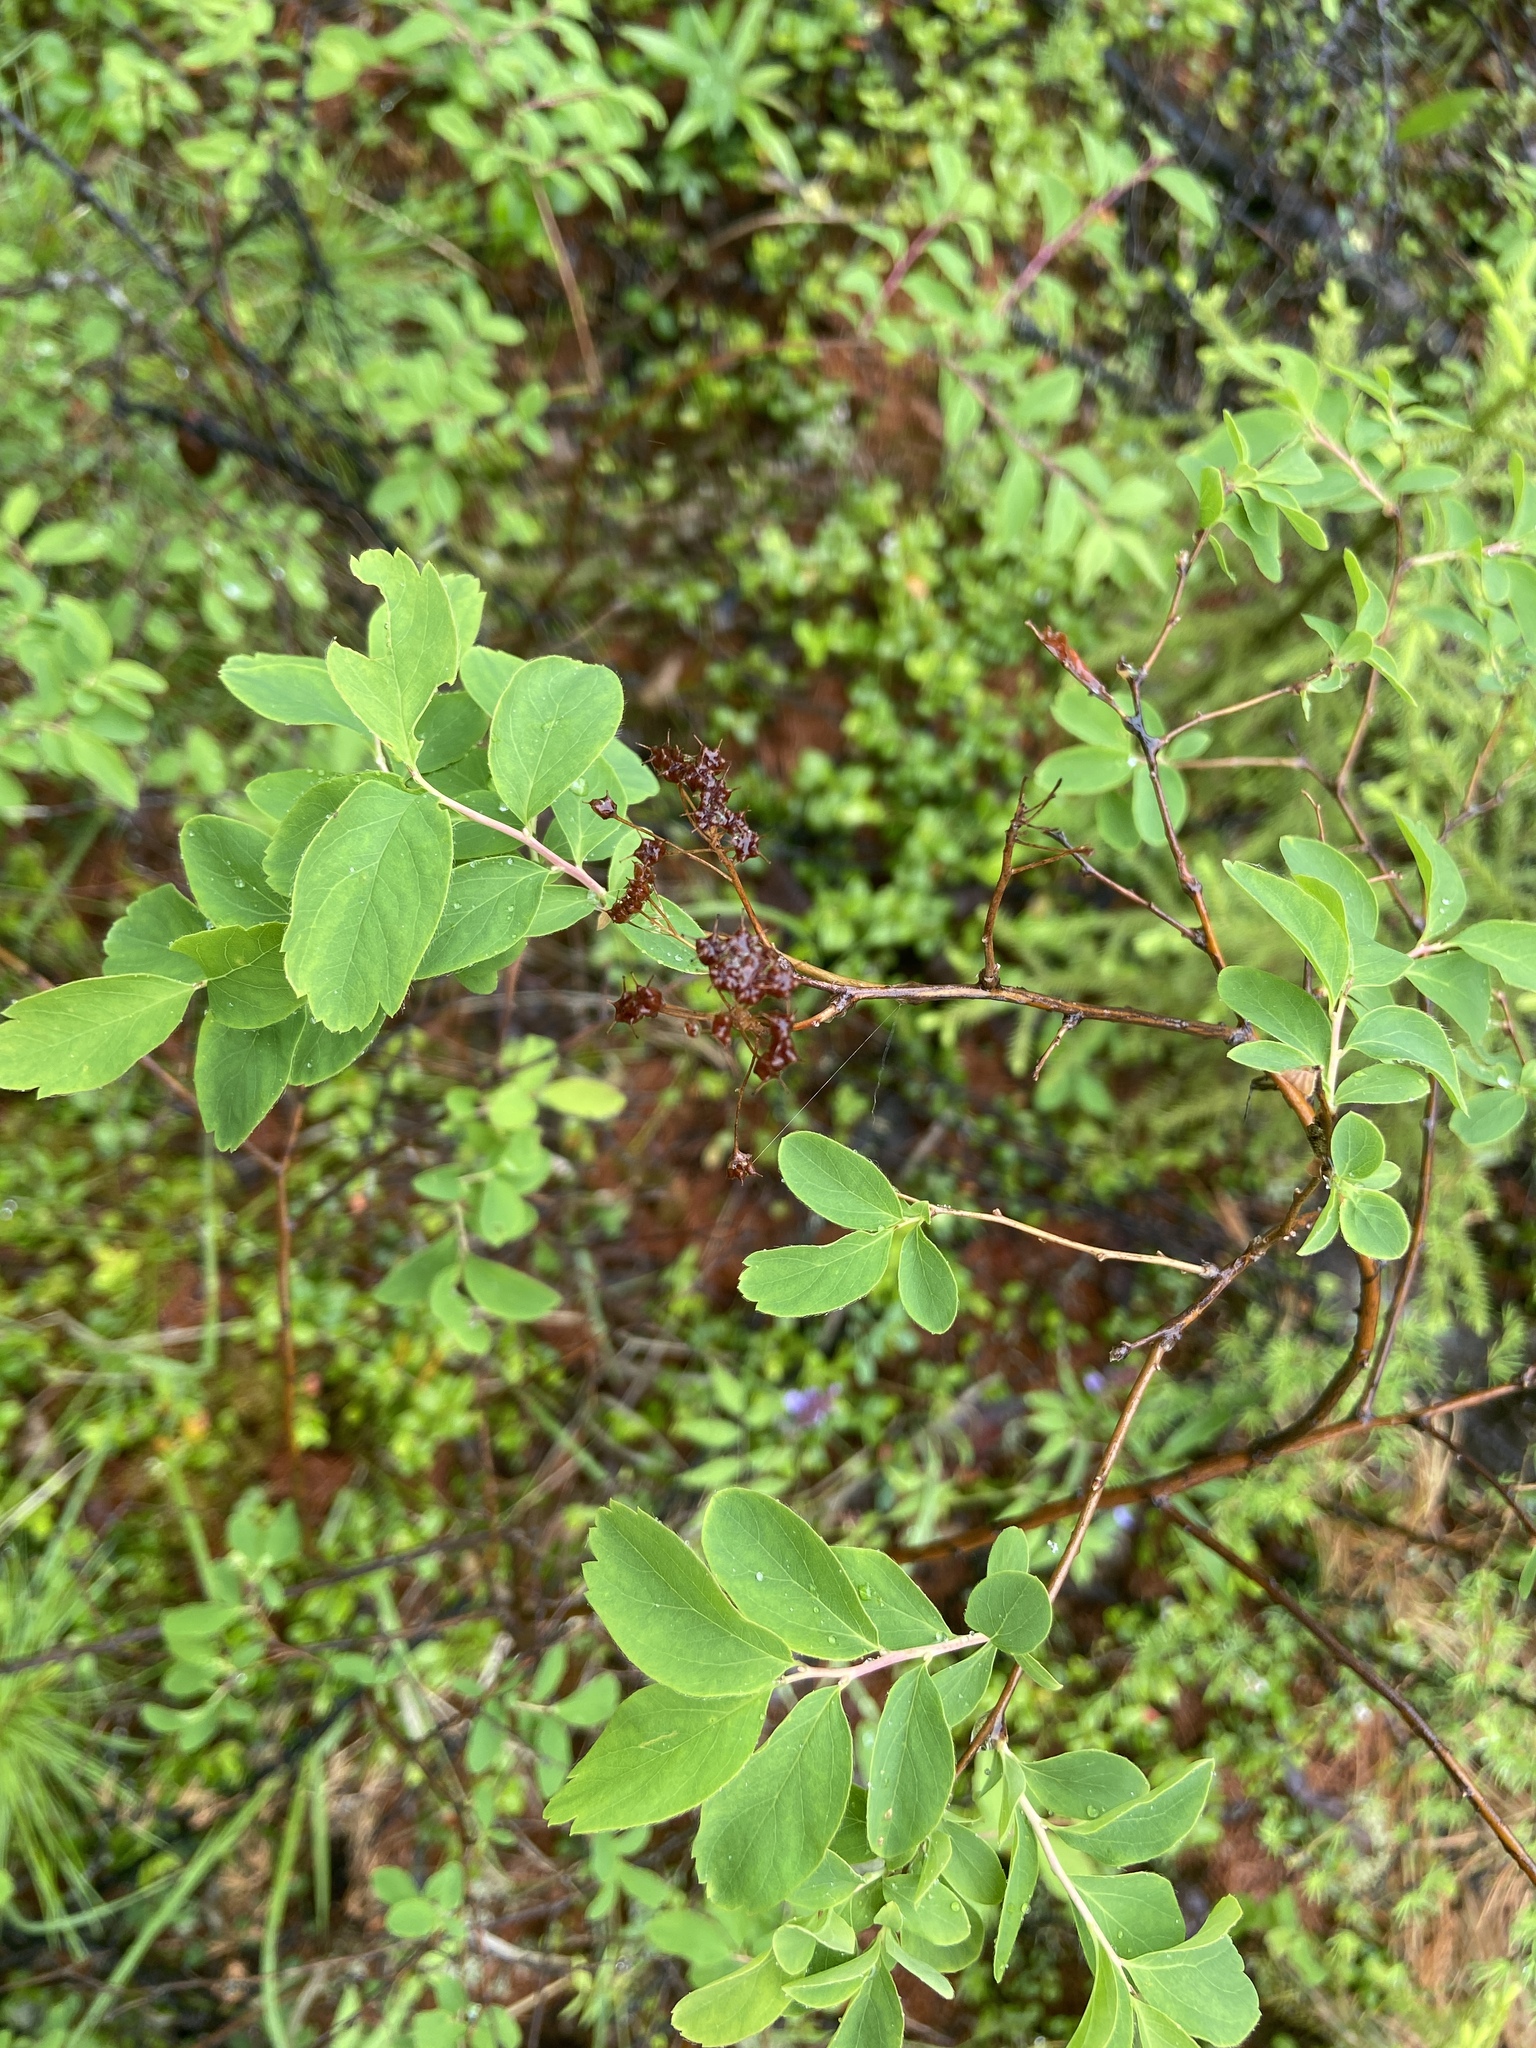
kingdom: Plantae
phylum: Tracheophyta
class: Magnoliopsida
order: Rosales
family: Rosaceae
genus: Spiraea
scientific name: Spiraea media
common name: Russian spiraea
